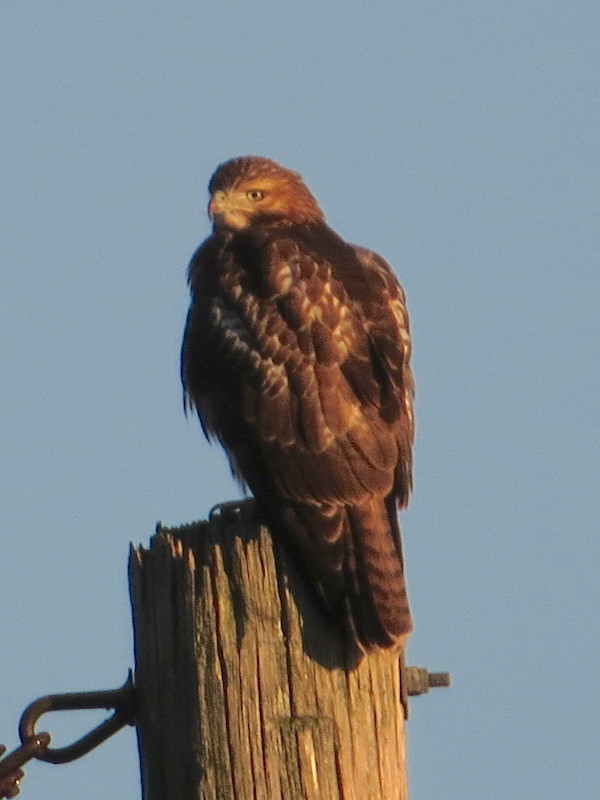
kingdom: Animalia
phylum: Chordata
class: Aves
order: Accipitriformes
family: Accipitridae
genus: Buteo
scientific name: Buteo jamaicensis
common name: Red-tailed hawk
